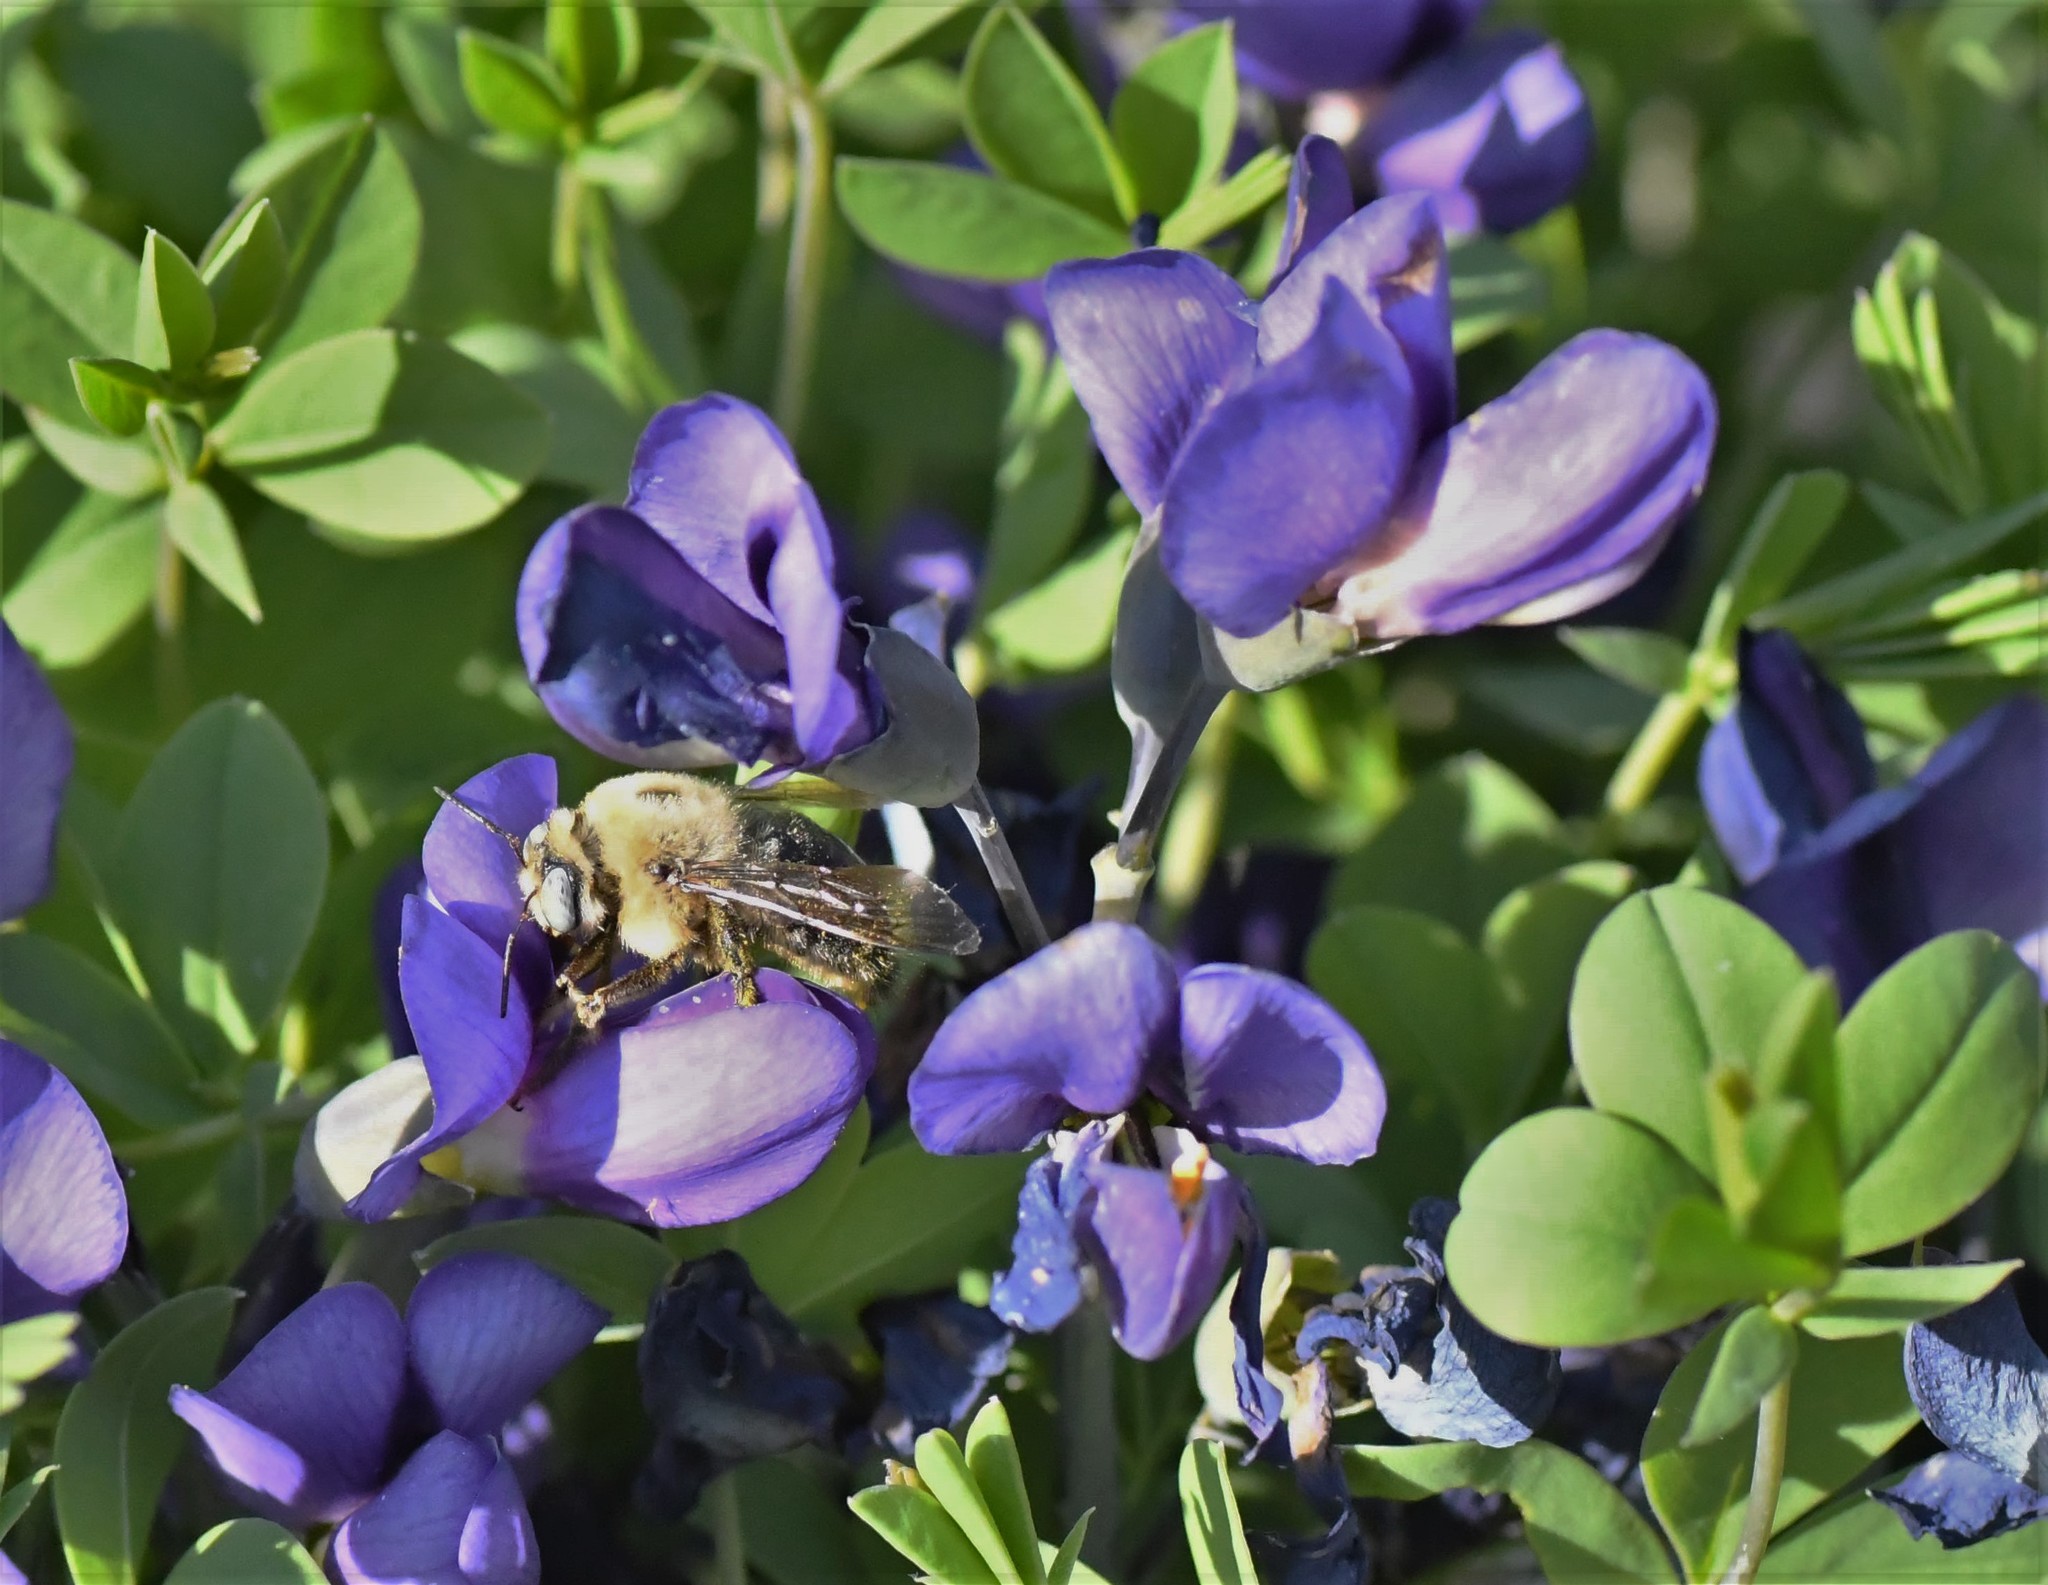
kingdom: Animalia
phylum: Arthropoda
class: Insecta
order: Hymenoptera
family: Apidae
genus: Xylocopa
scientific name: Xylocopa tabaniformis
